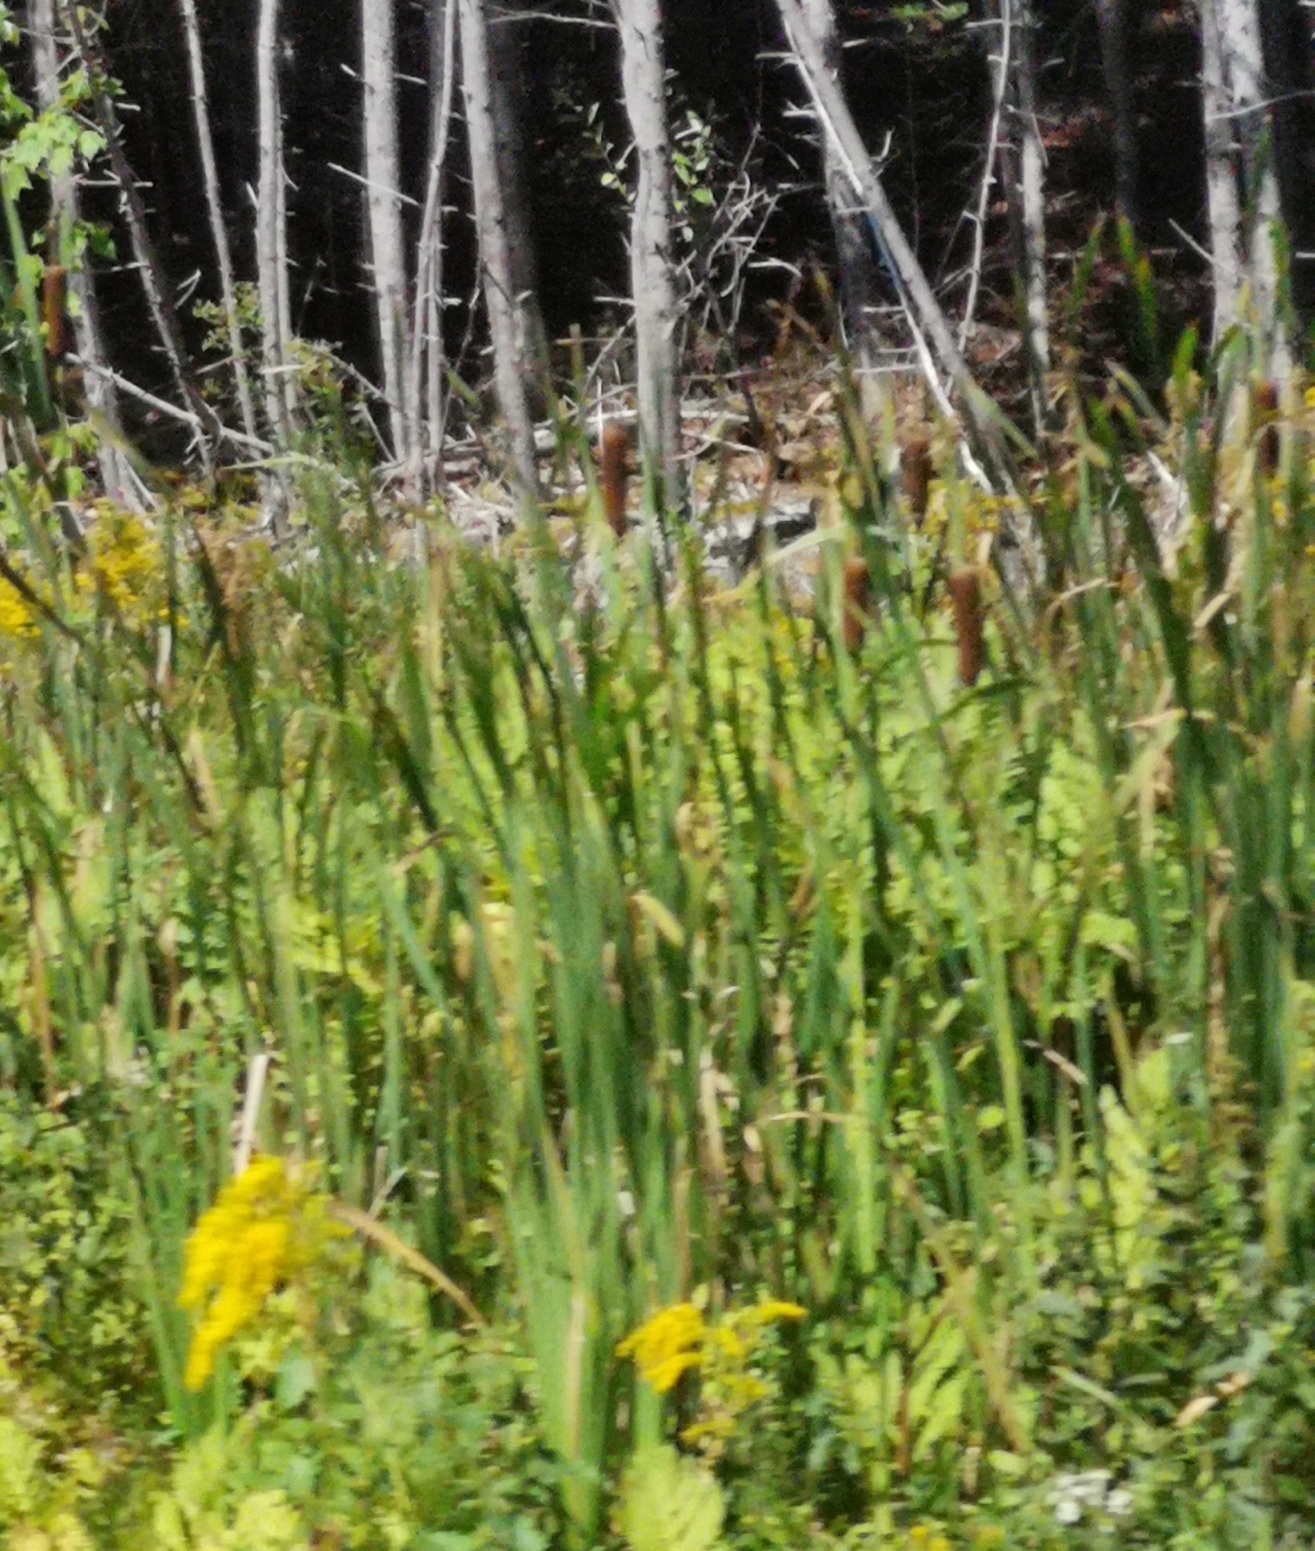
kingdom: Plantae
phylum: Tracheophyta
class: Liliopsida
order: Poales
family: Typhaceae
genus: Typha
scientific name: Typha latifolia
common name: Broadleaf cattail
